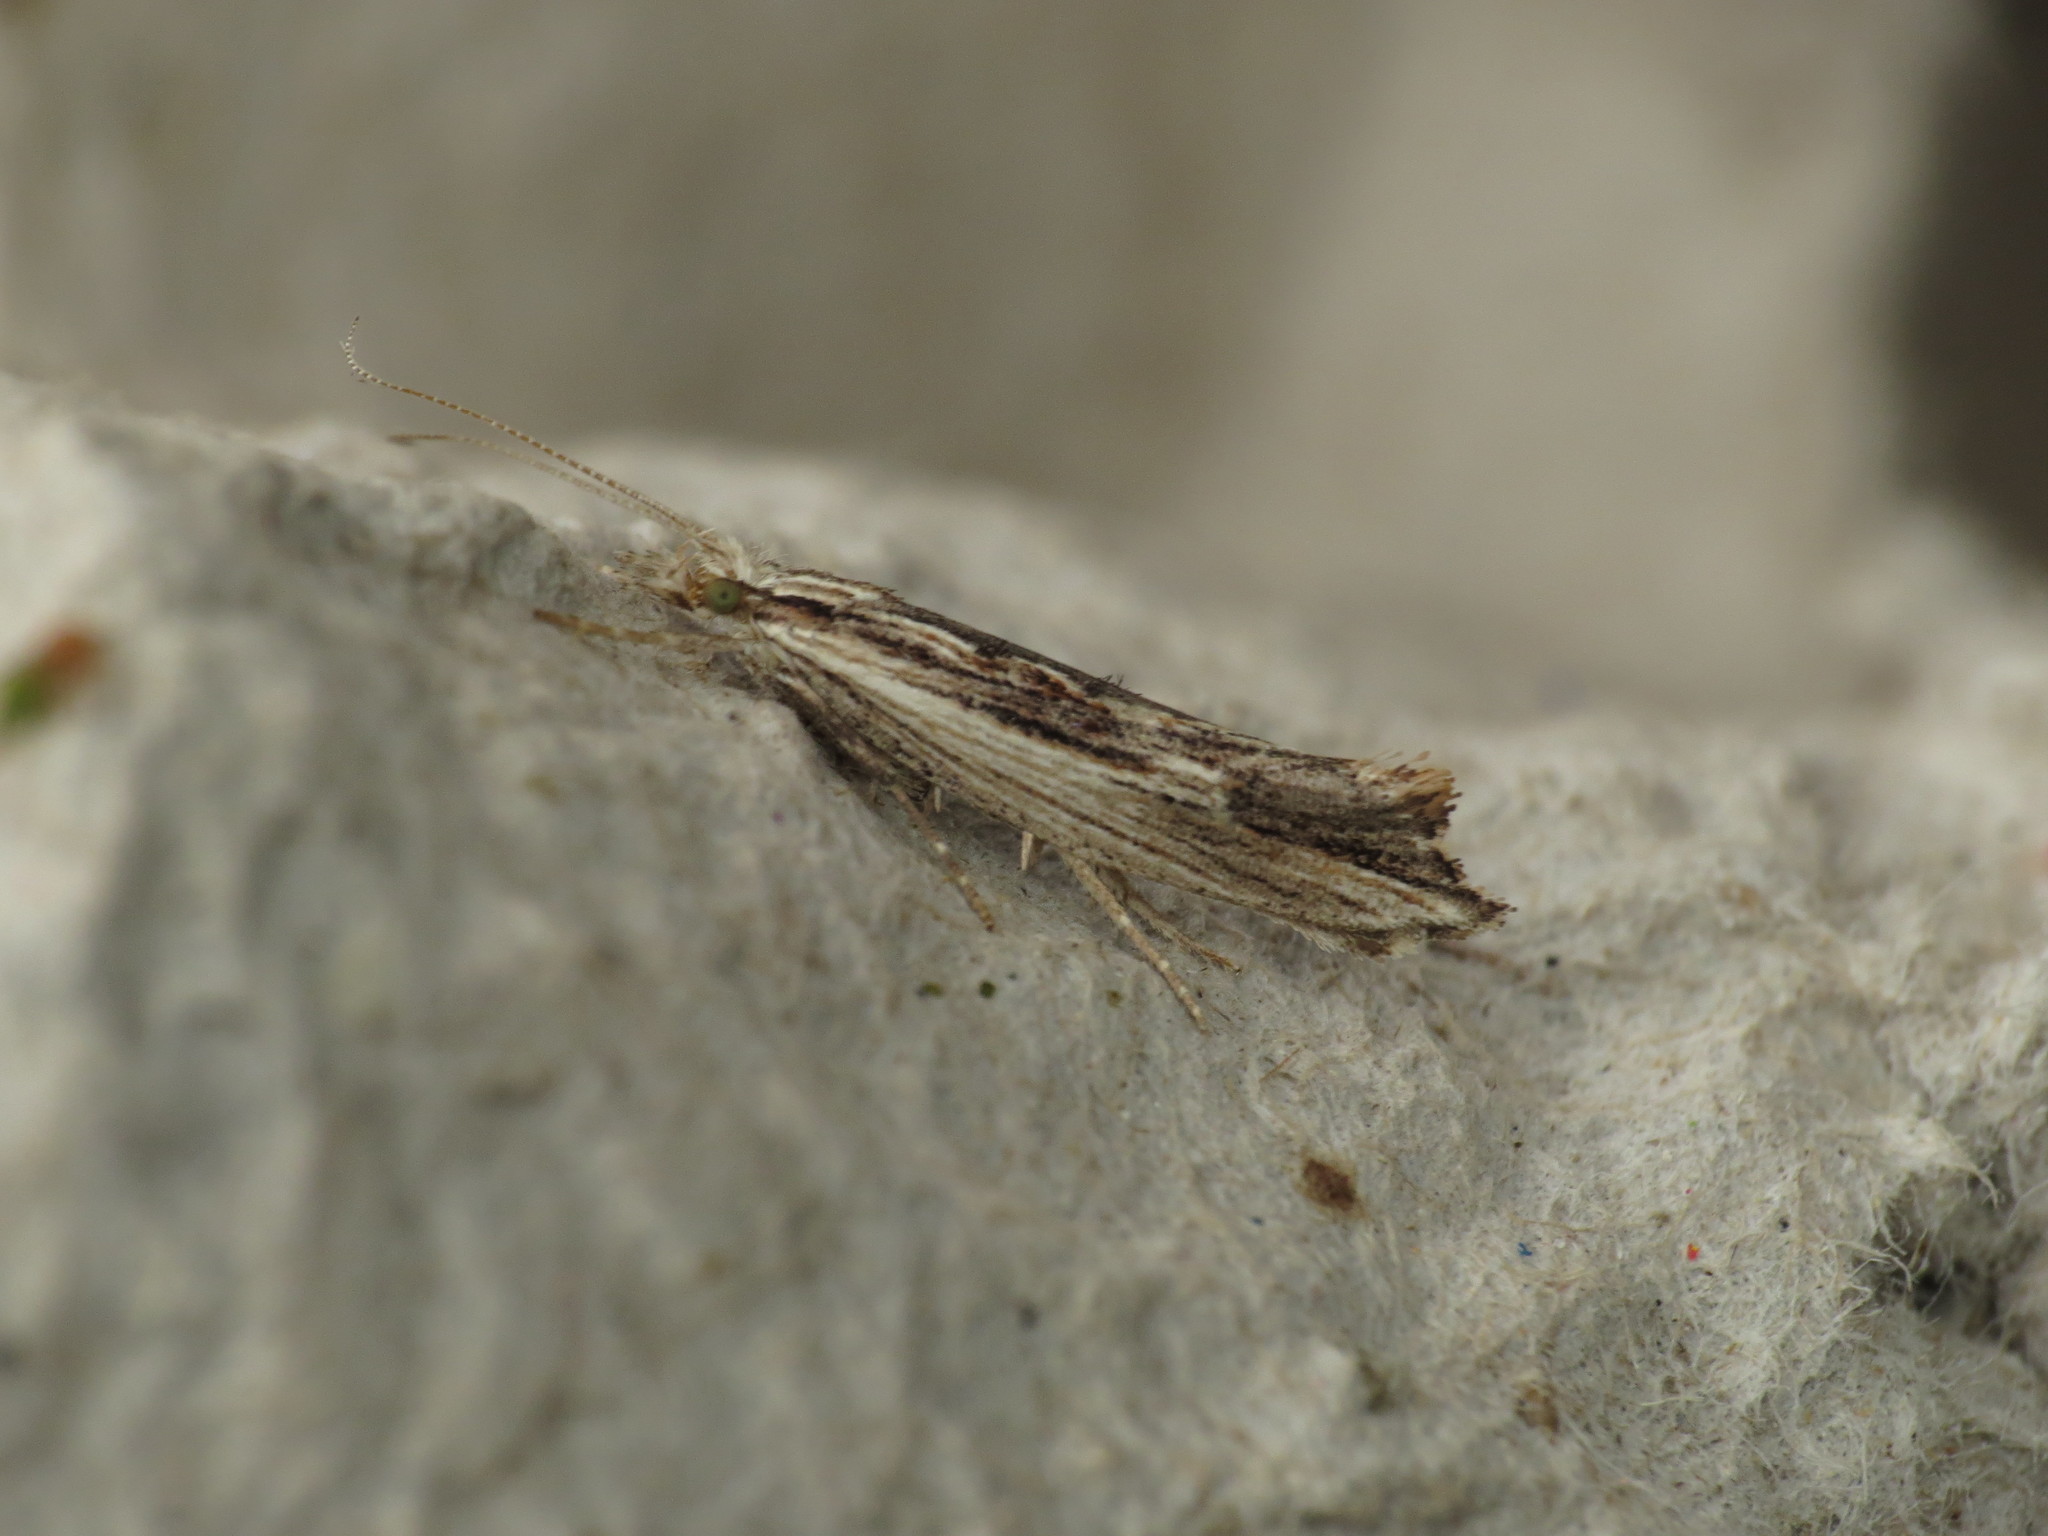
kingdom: Animalia
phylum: Arthropoda
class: Insecta
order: Lepidoptera
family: Ypsolophidae
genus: Ypsolopha
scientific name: Ypsolopha scabrella
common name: Wainscot smudge
